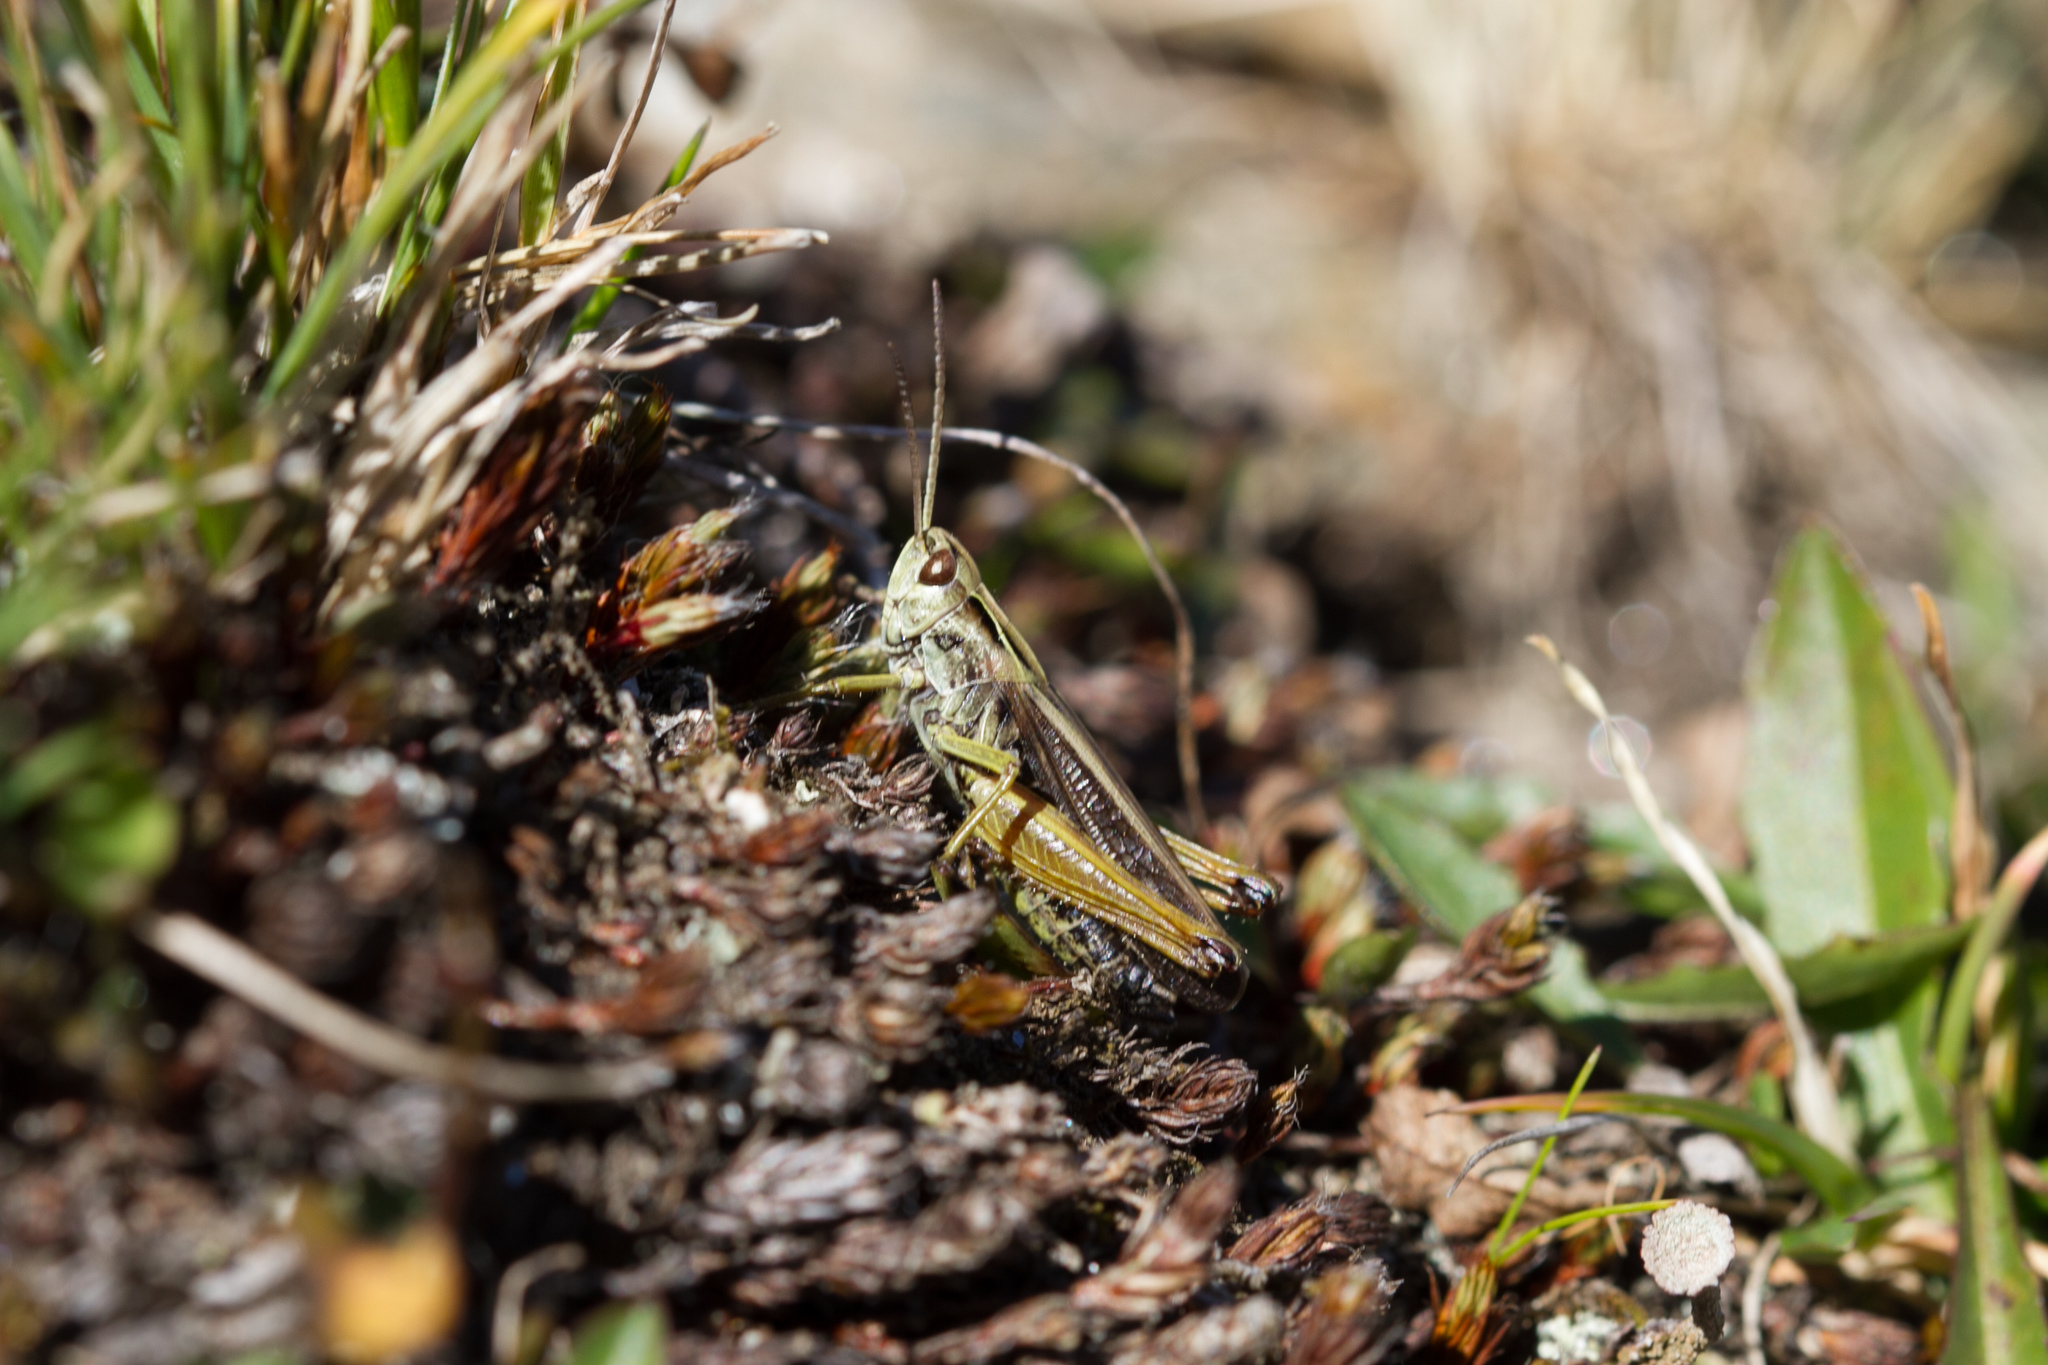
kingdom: Animalia
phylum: Arthropoda
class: Insecta
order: Orthoptera
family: Acrididae
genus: Omocestus
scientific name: Omocestus viridulus
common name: Common green grasshopper
